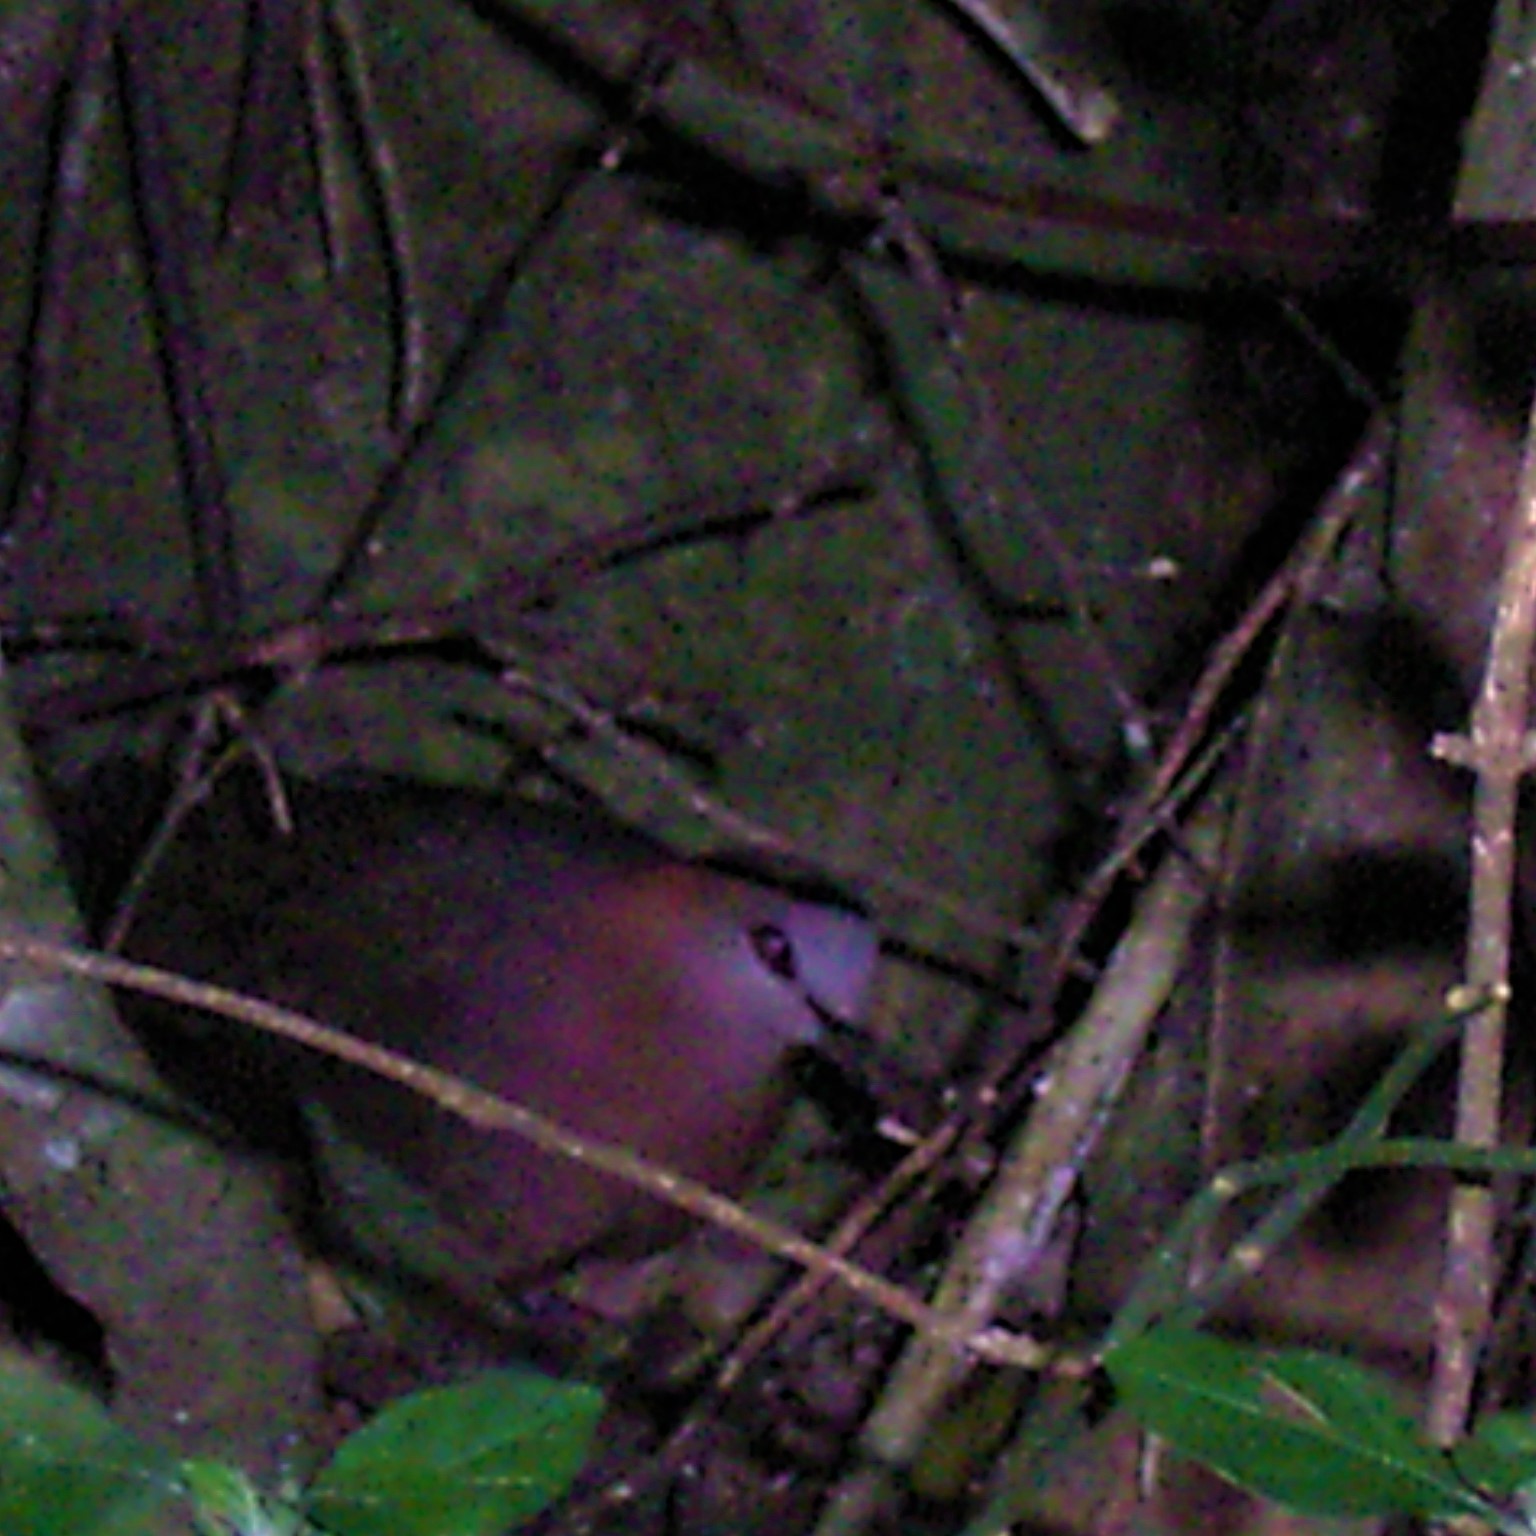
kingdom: Animalia
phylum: Chordata
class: Aves
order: Columbiformes
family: Columbidae
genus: Columba
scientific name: Columba larvata
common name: Lemon dove
